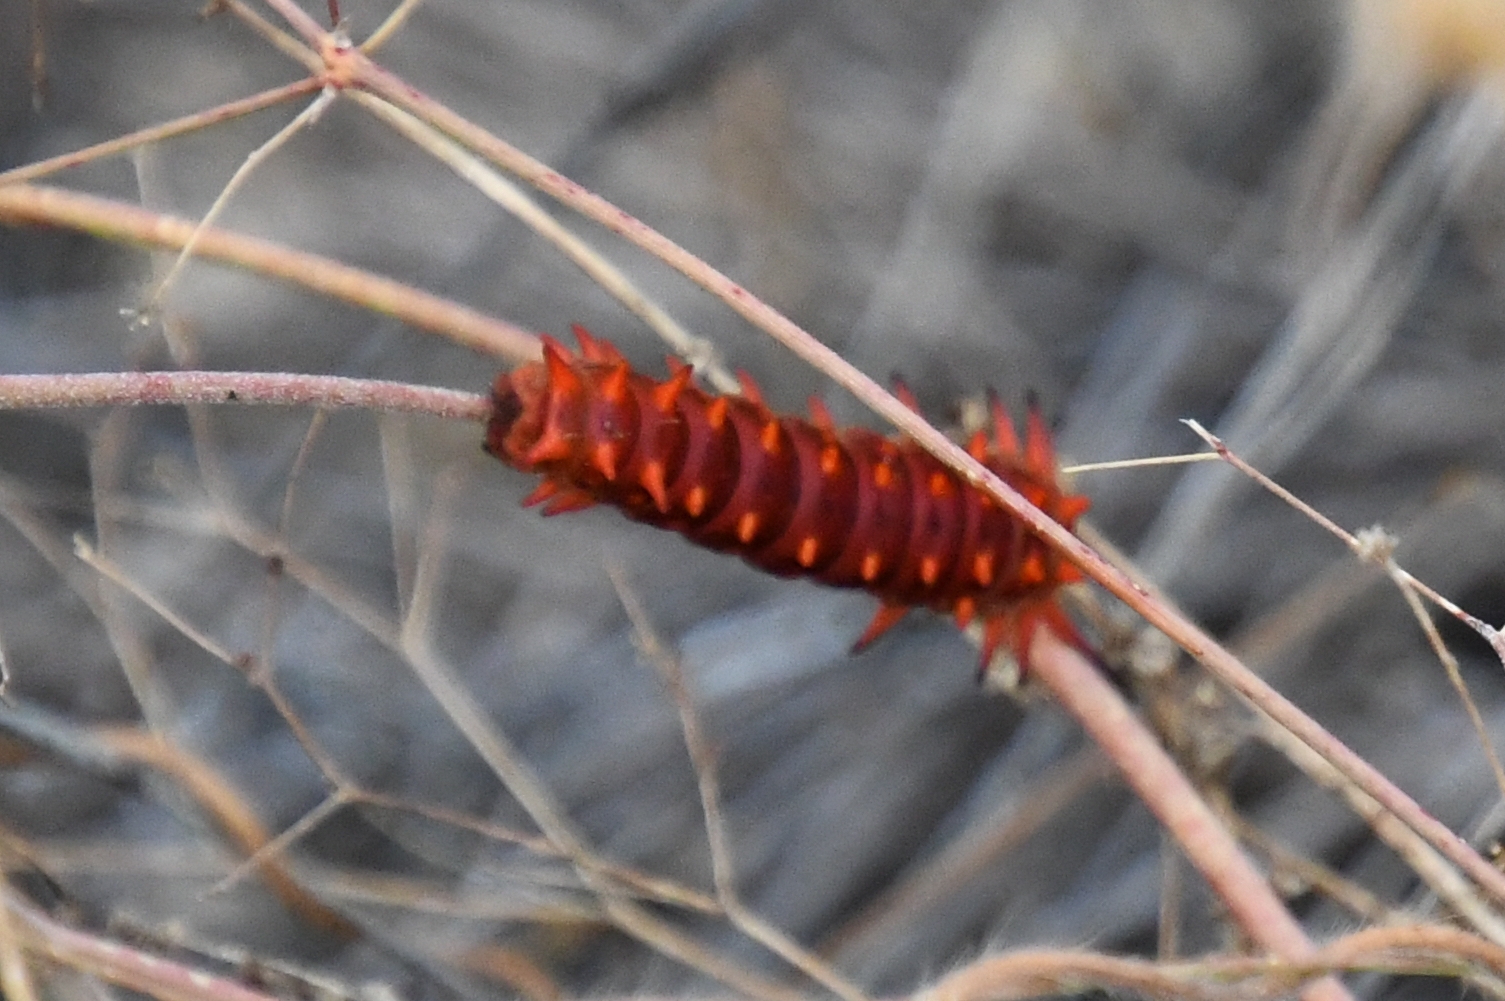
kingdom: Animalia
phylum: Arthropoda
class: Insecta
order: Lepidoptera
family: Papilionidae
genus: Battus
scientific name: Battus philenor
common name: Pipevine swallowtail
